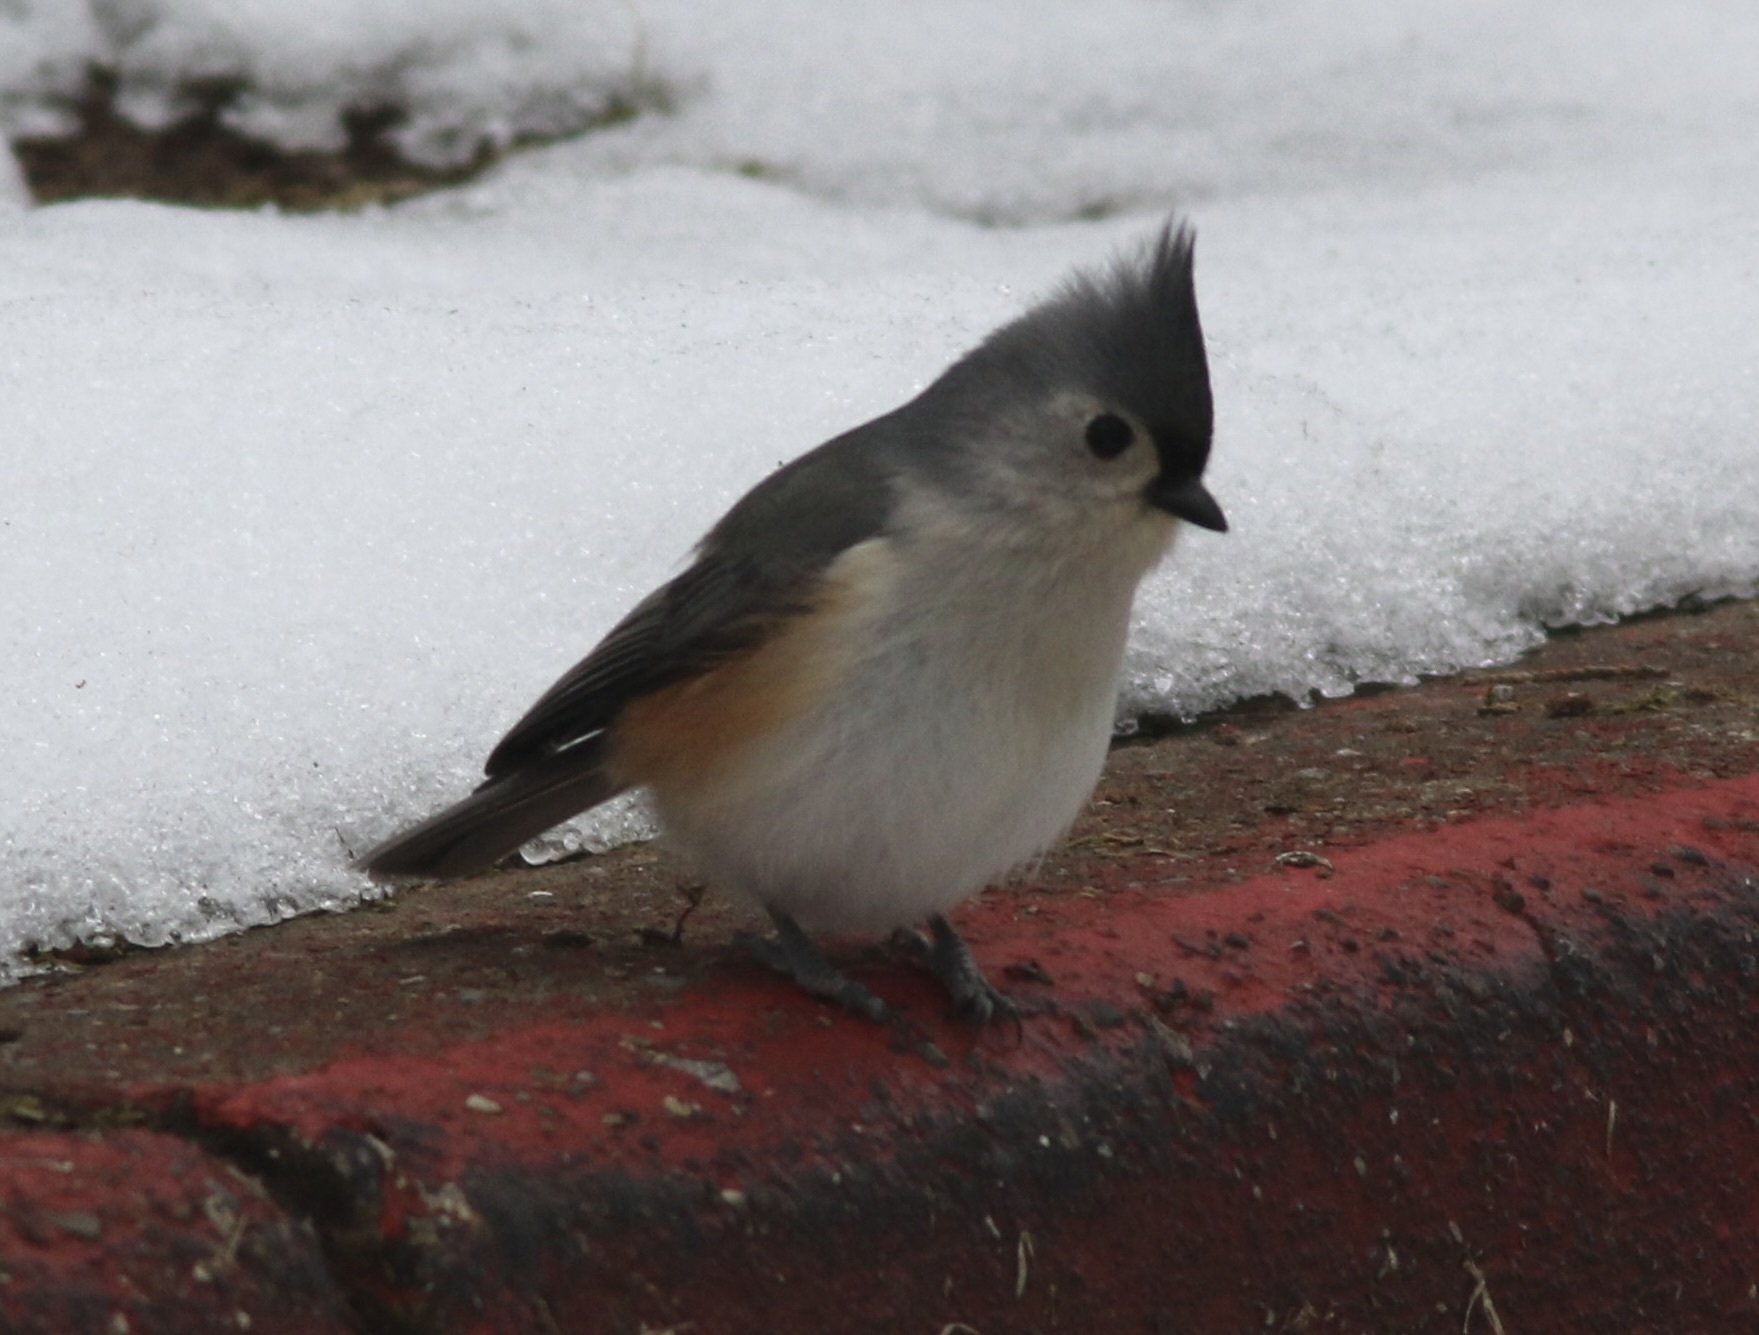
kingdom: Animalia
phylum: Chordata
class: Aves
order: Passeriformes
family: Paridae
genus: Baeolophus
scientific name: Baeolophus bicolor
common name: Tufted titmouse
